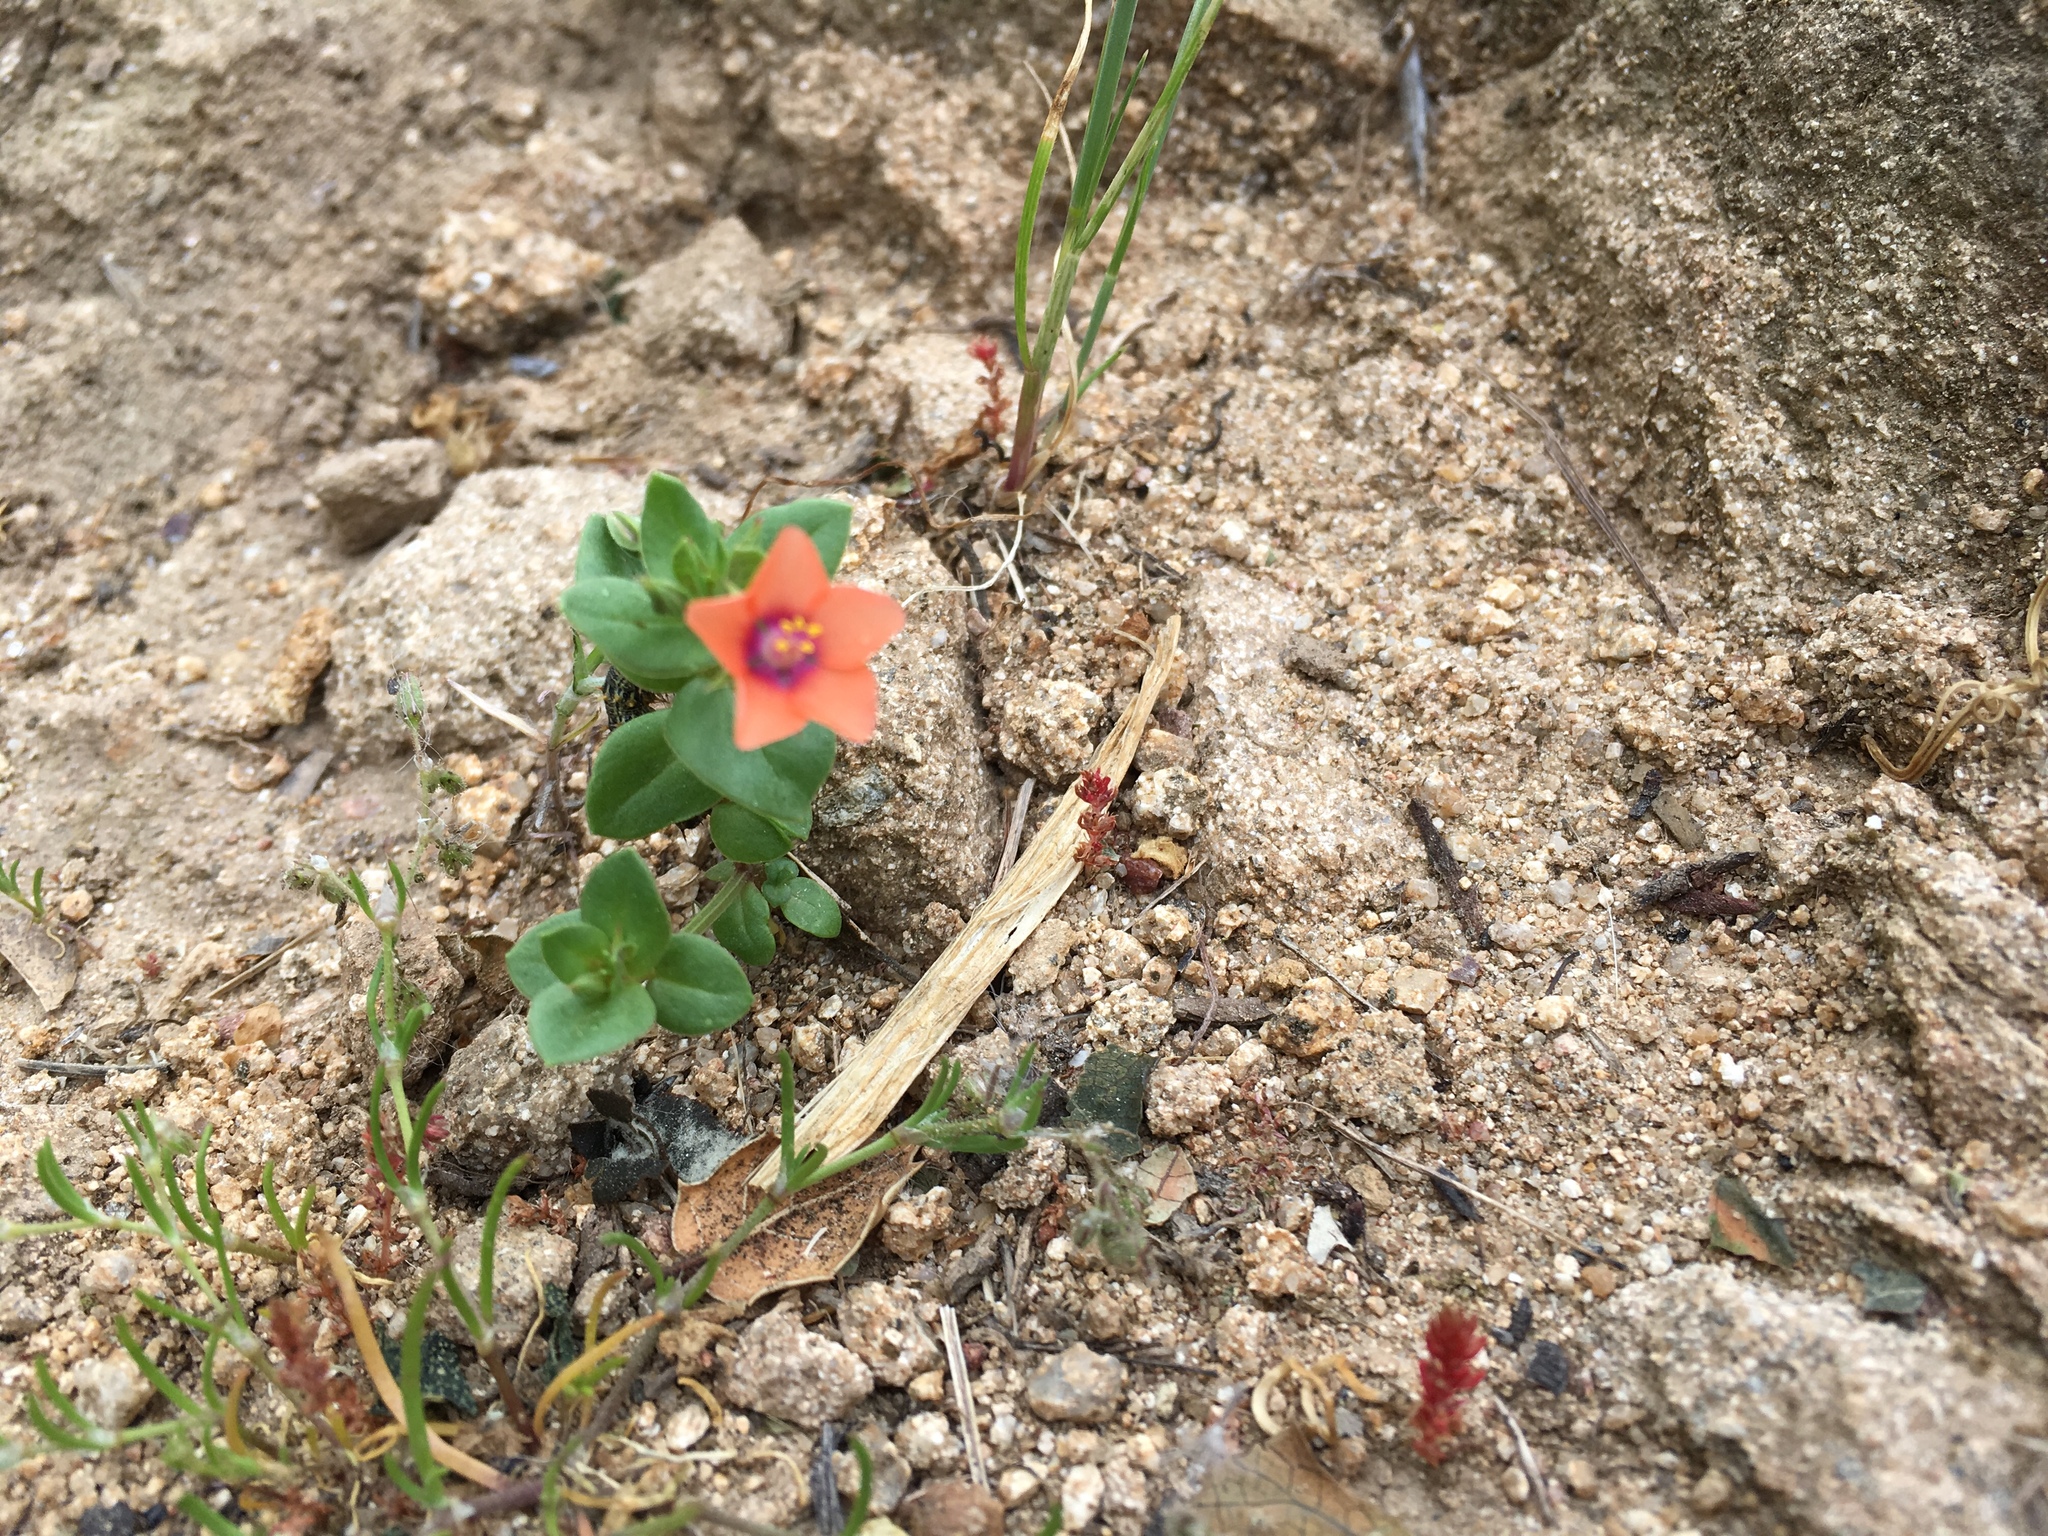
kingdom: Plantae
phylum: Tracheophyta
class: Magnoliopsida
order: Ericales
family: Primulaceae
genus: Lysimachia
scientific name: Lysimachia arvensis
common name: Scarlet pimpernel
